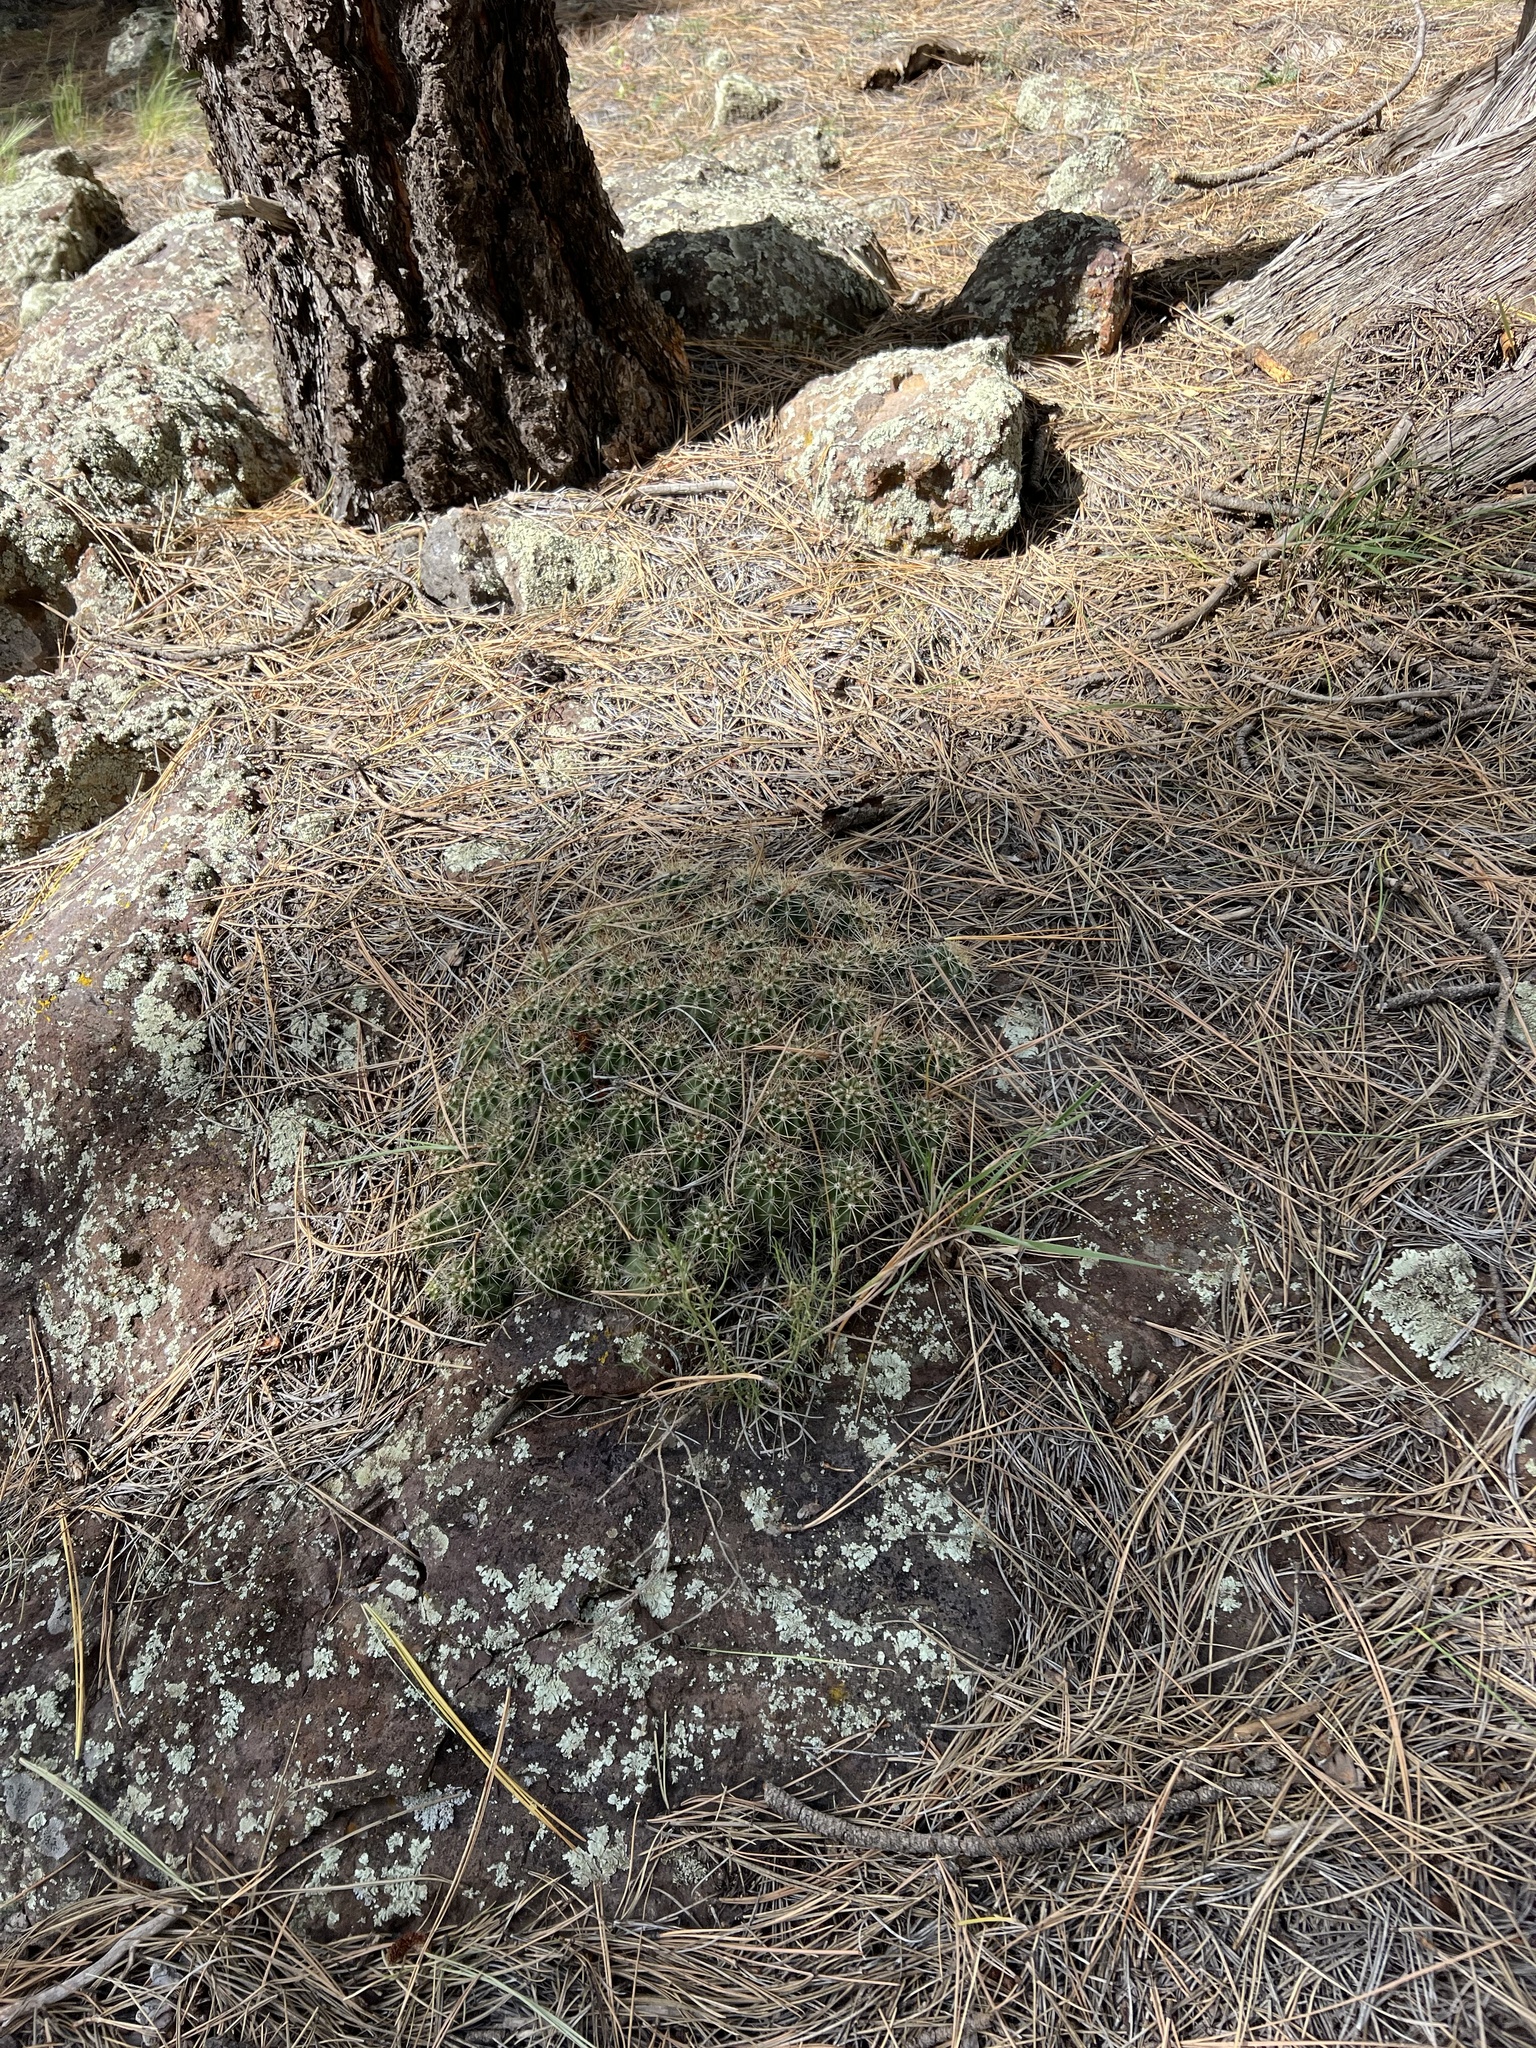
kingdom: Plantae
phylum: Tracheophyta
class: Magnoliopsida
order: Caryophyllales
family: Cactaceae
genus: Echinocereus
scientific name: Echinocereus bakeri
